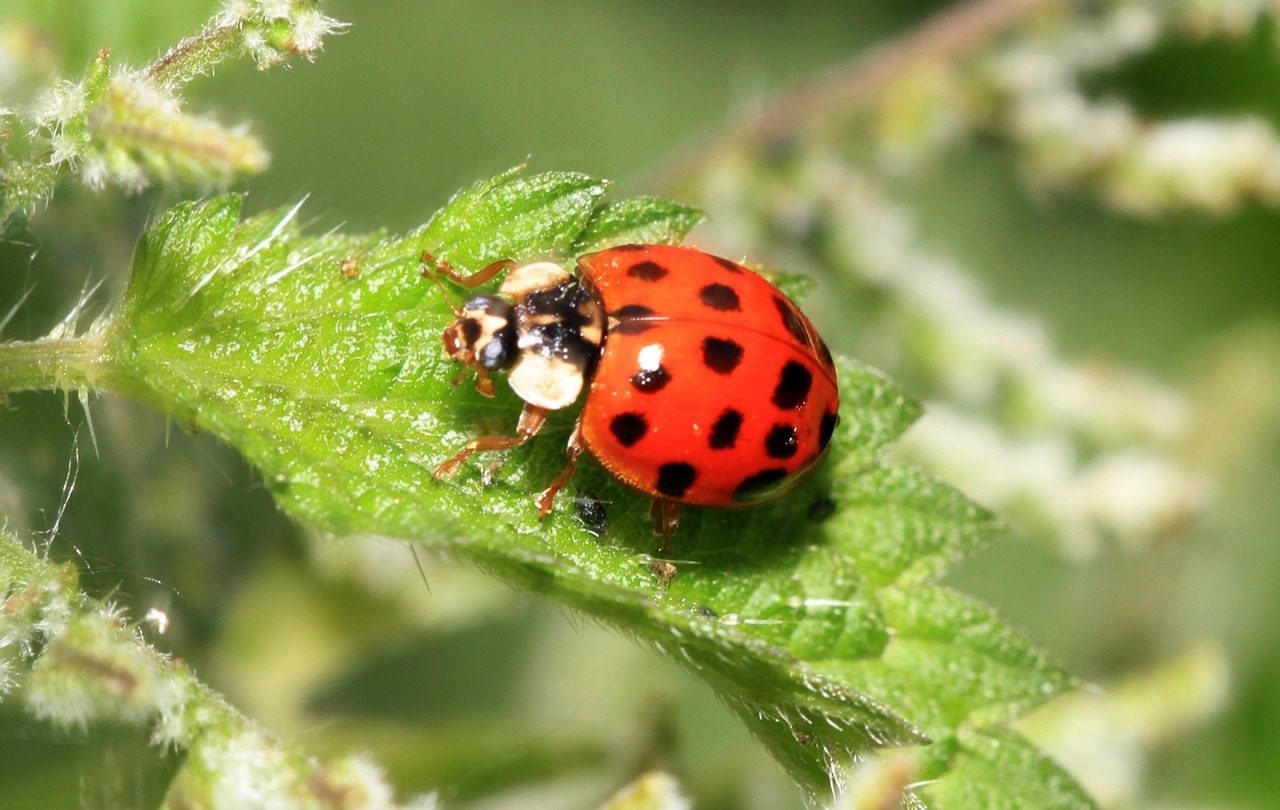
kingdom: Animalia
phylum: Arthropoda
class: Insecta
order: Coleoptera
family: Coccinellidae
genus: Harmonia
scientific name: Harmonia axyridis
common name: Harlequin ladybird
